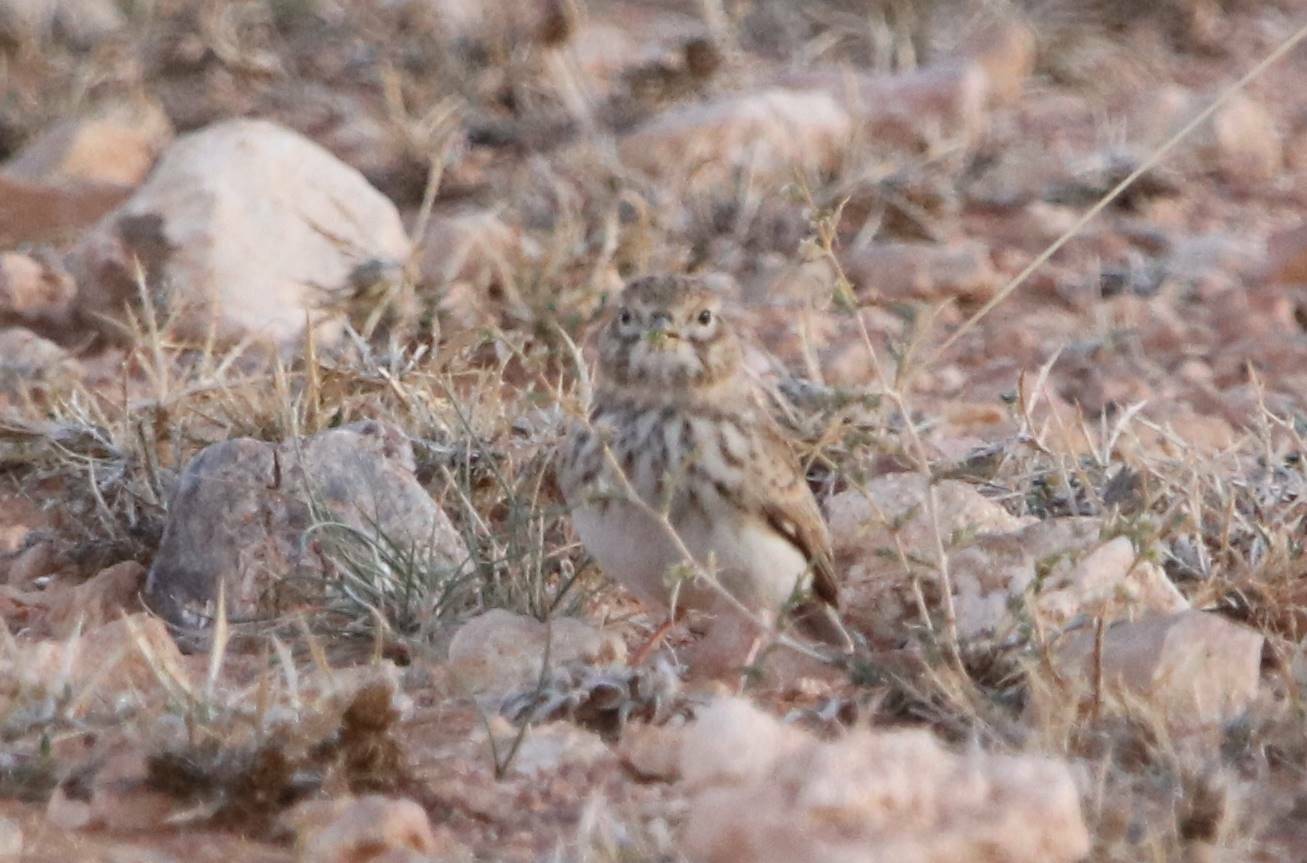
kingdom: Animalia
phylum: Chordata
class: Aves
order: Passeriformes
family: Alaudidae
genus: Calandrella
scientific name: Calandrella rufescens
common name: Lesser short-toed lark
